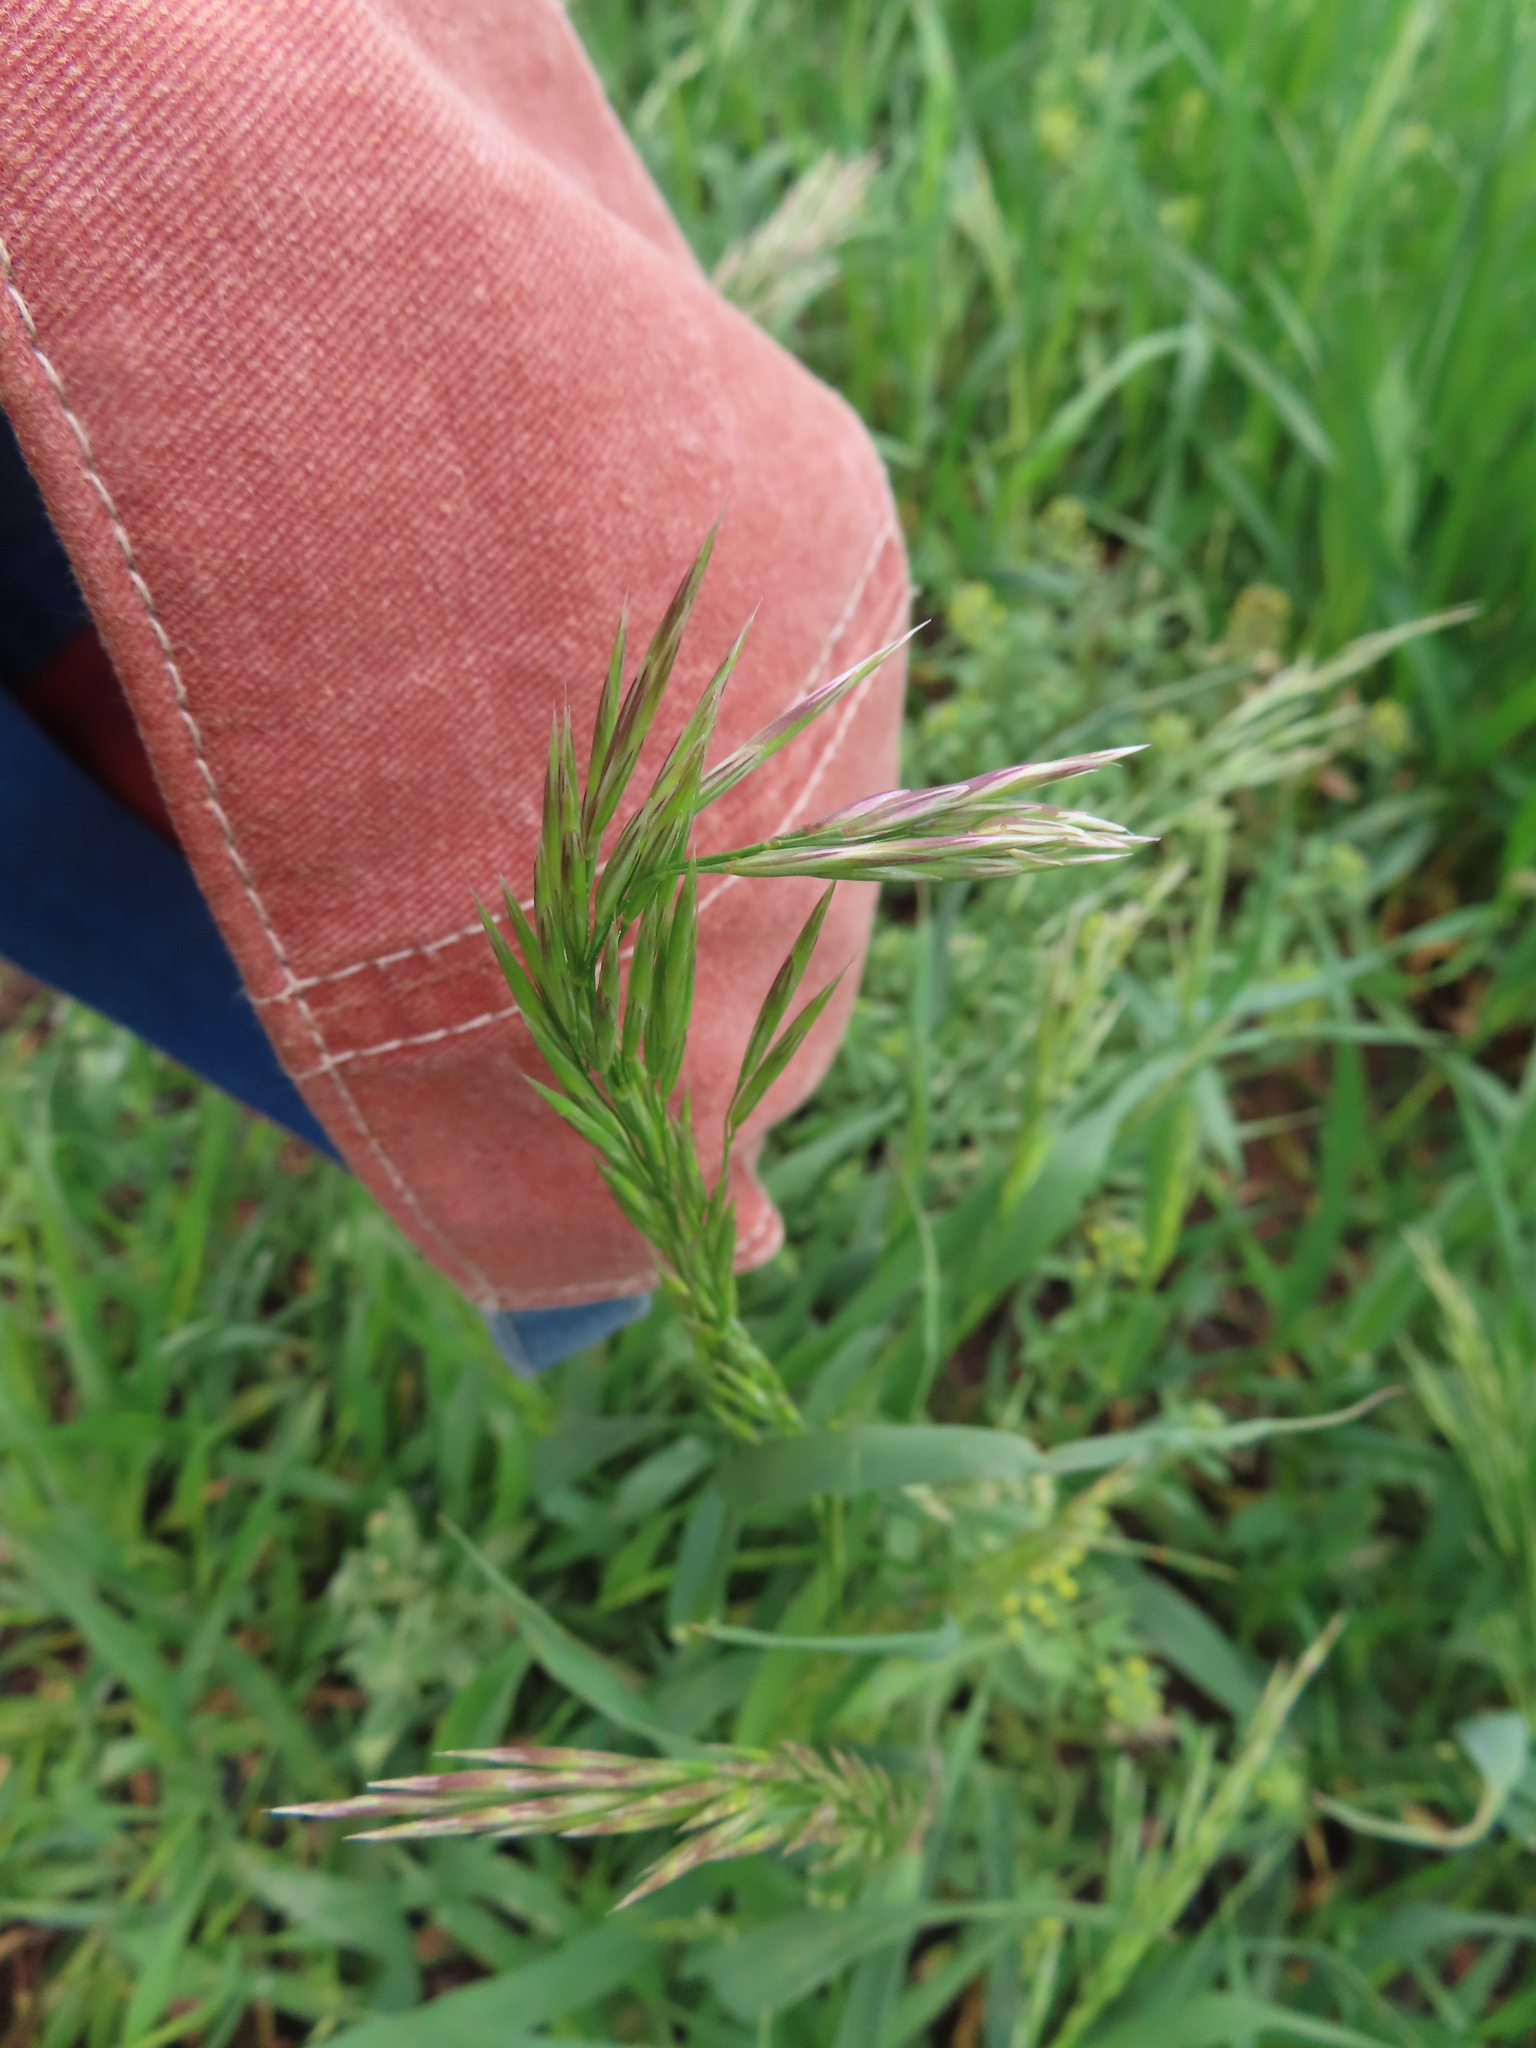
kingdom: Plantae
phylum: Tracheophyta
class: Liliopsida
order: Poales
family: Poaceae
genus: Bromus
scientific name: Bromus inermis
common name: Smooth brome
